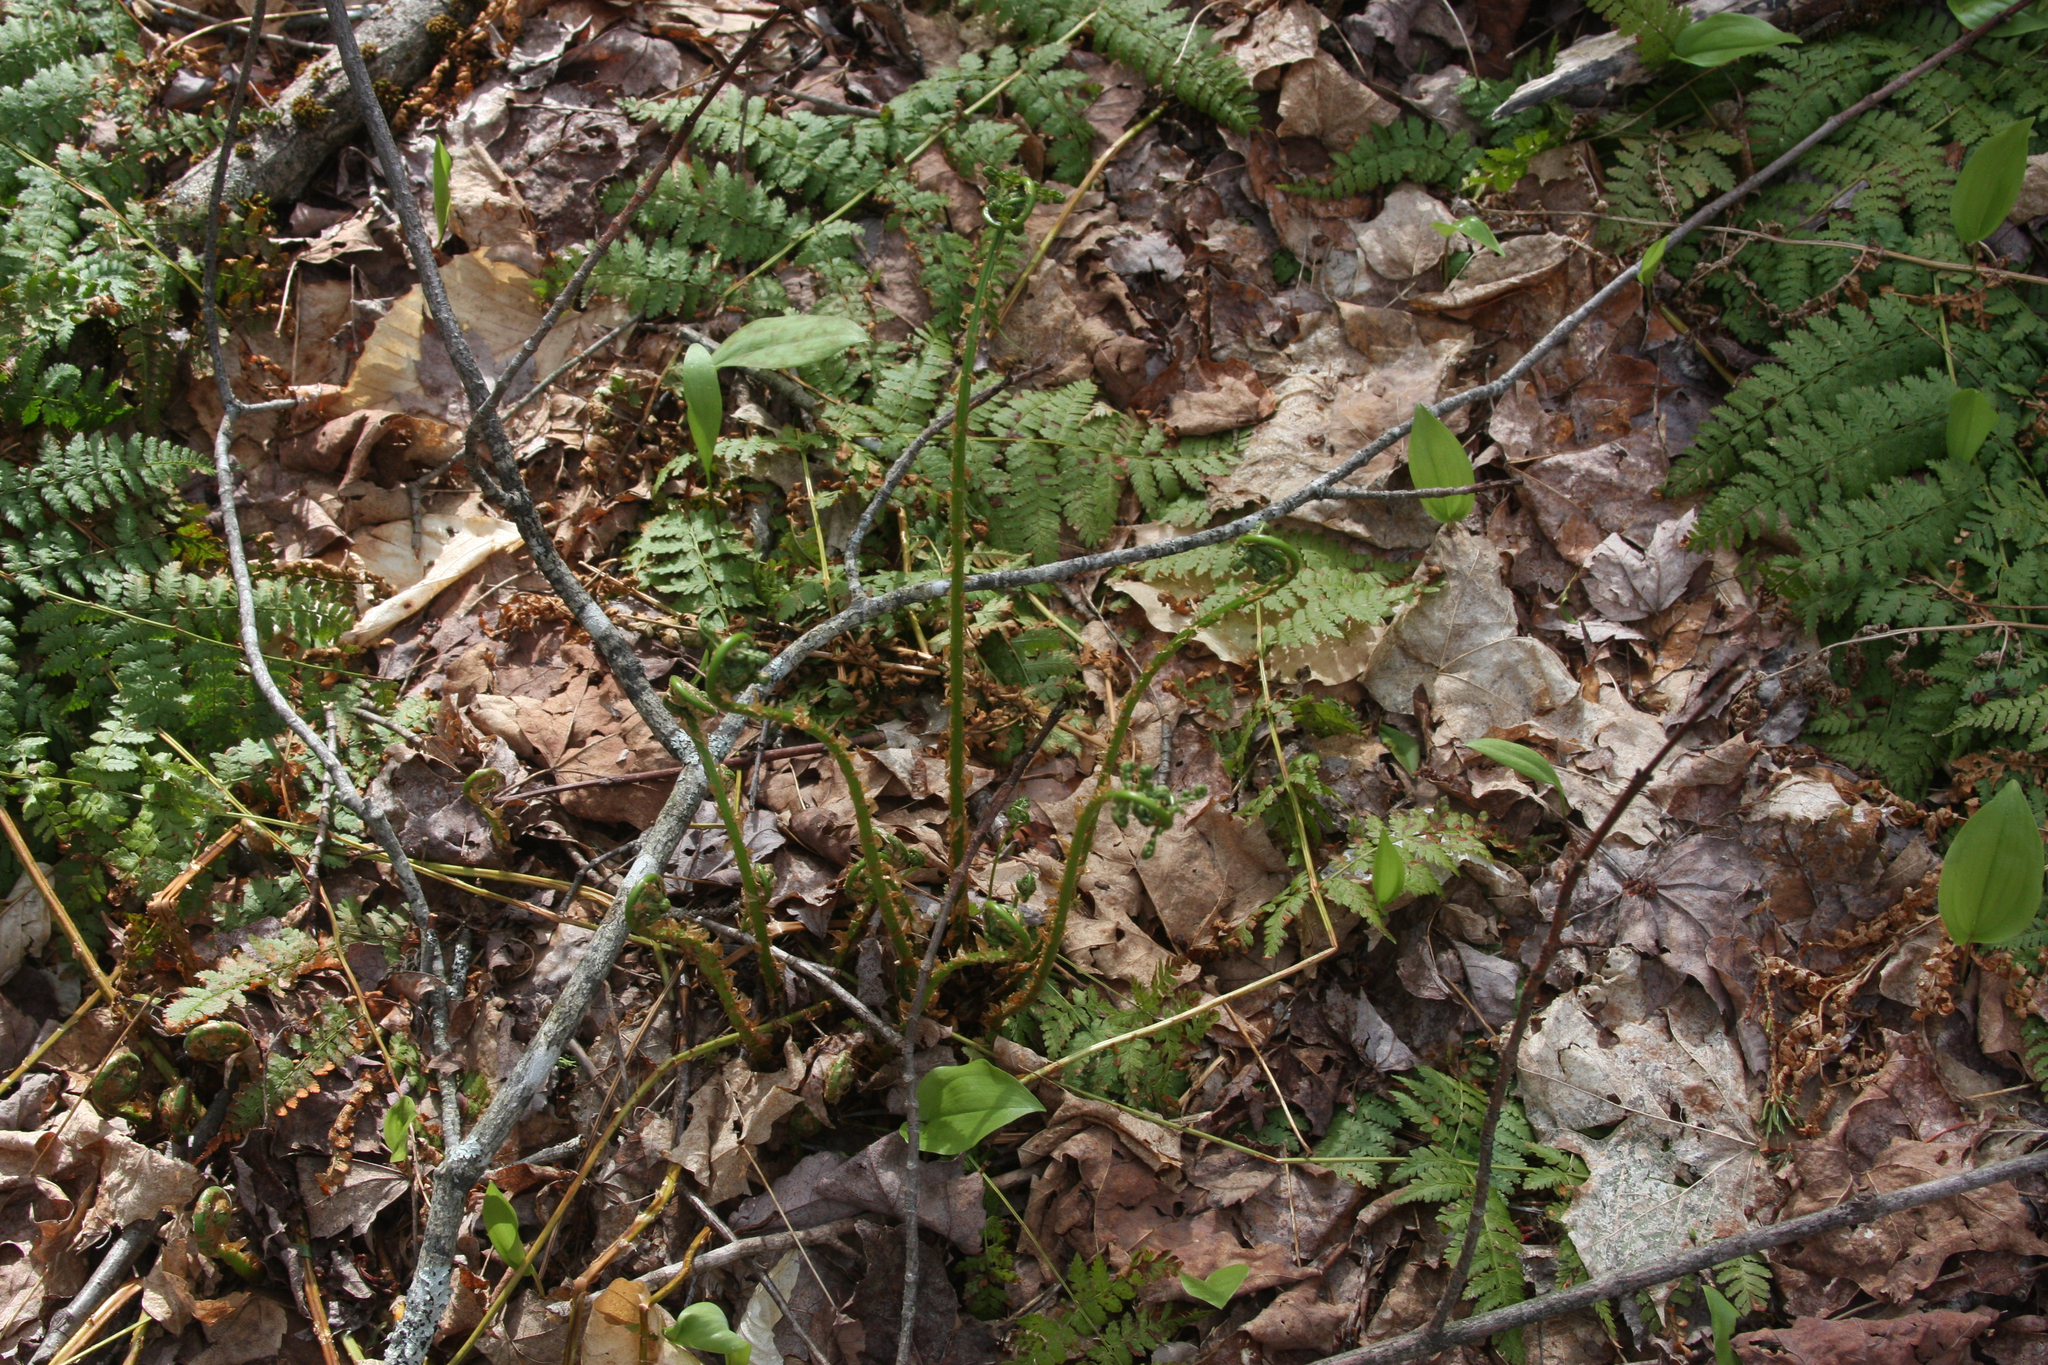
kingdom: Plantae
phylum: Tracheophyta
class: Polypodiopsida
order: Polypodiales
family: Dryopteridaceae
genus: Dryopteris
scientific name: Dryopteris intermedia
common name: Evergreen wood fern
